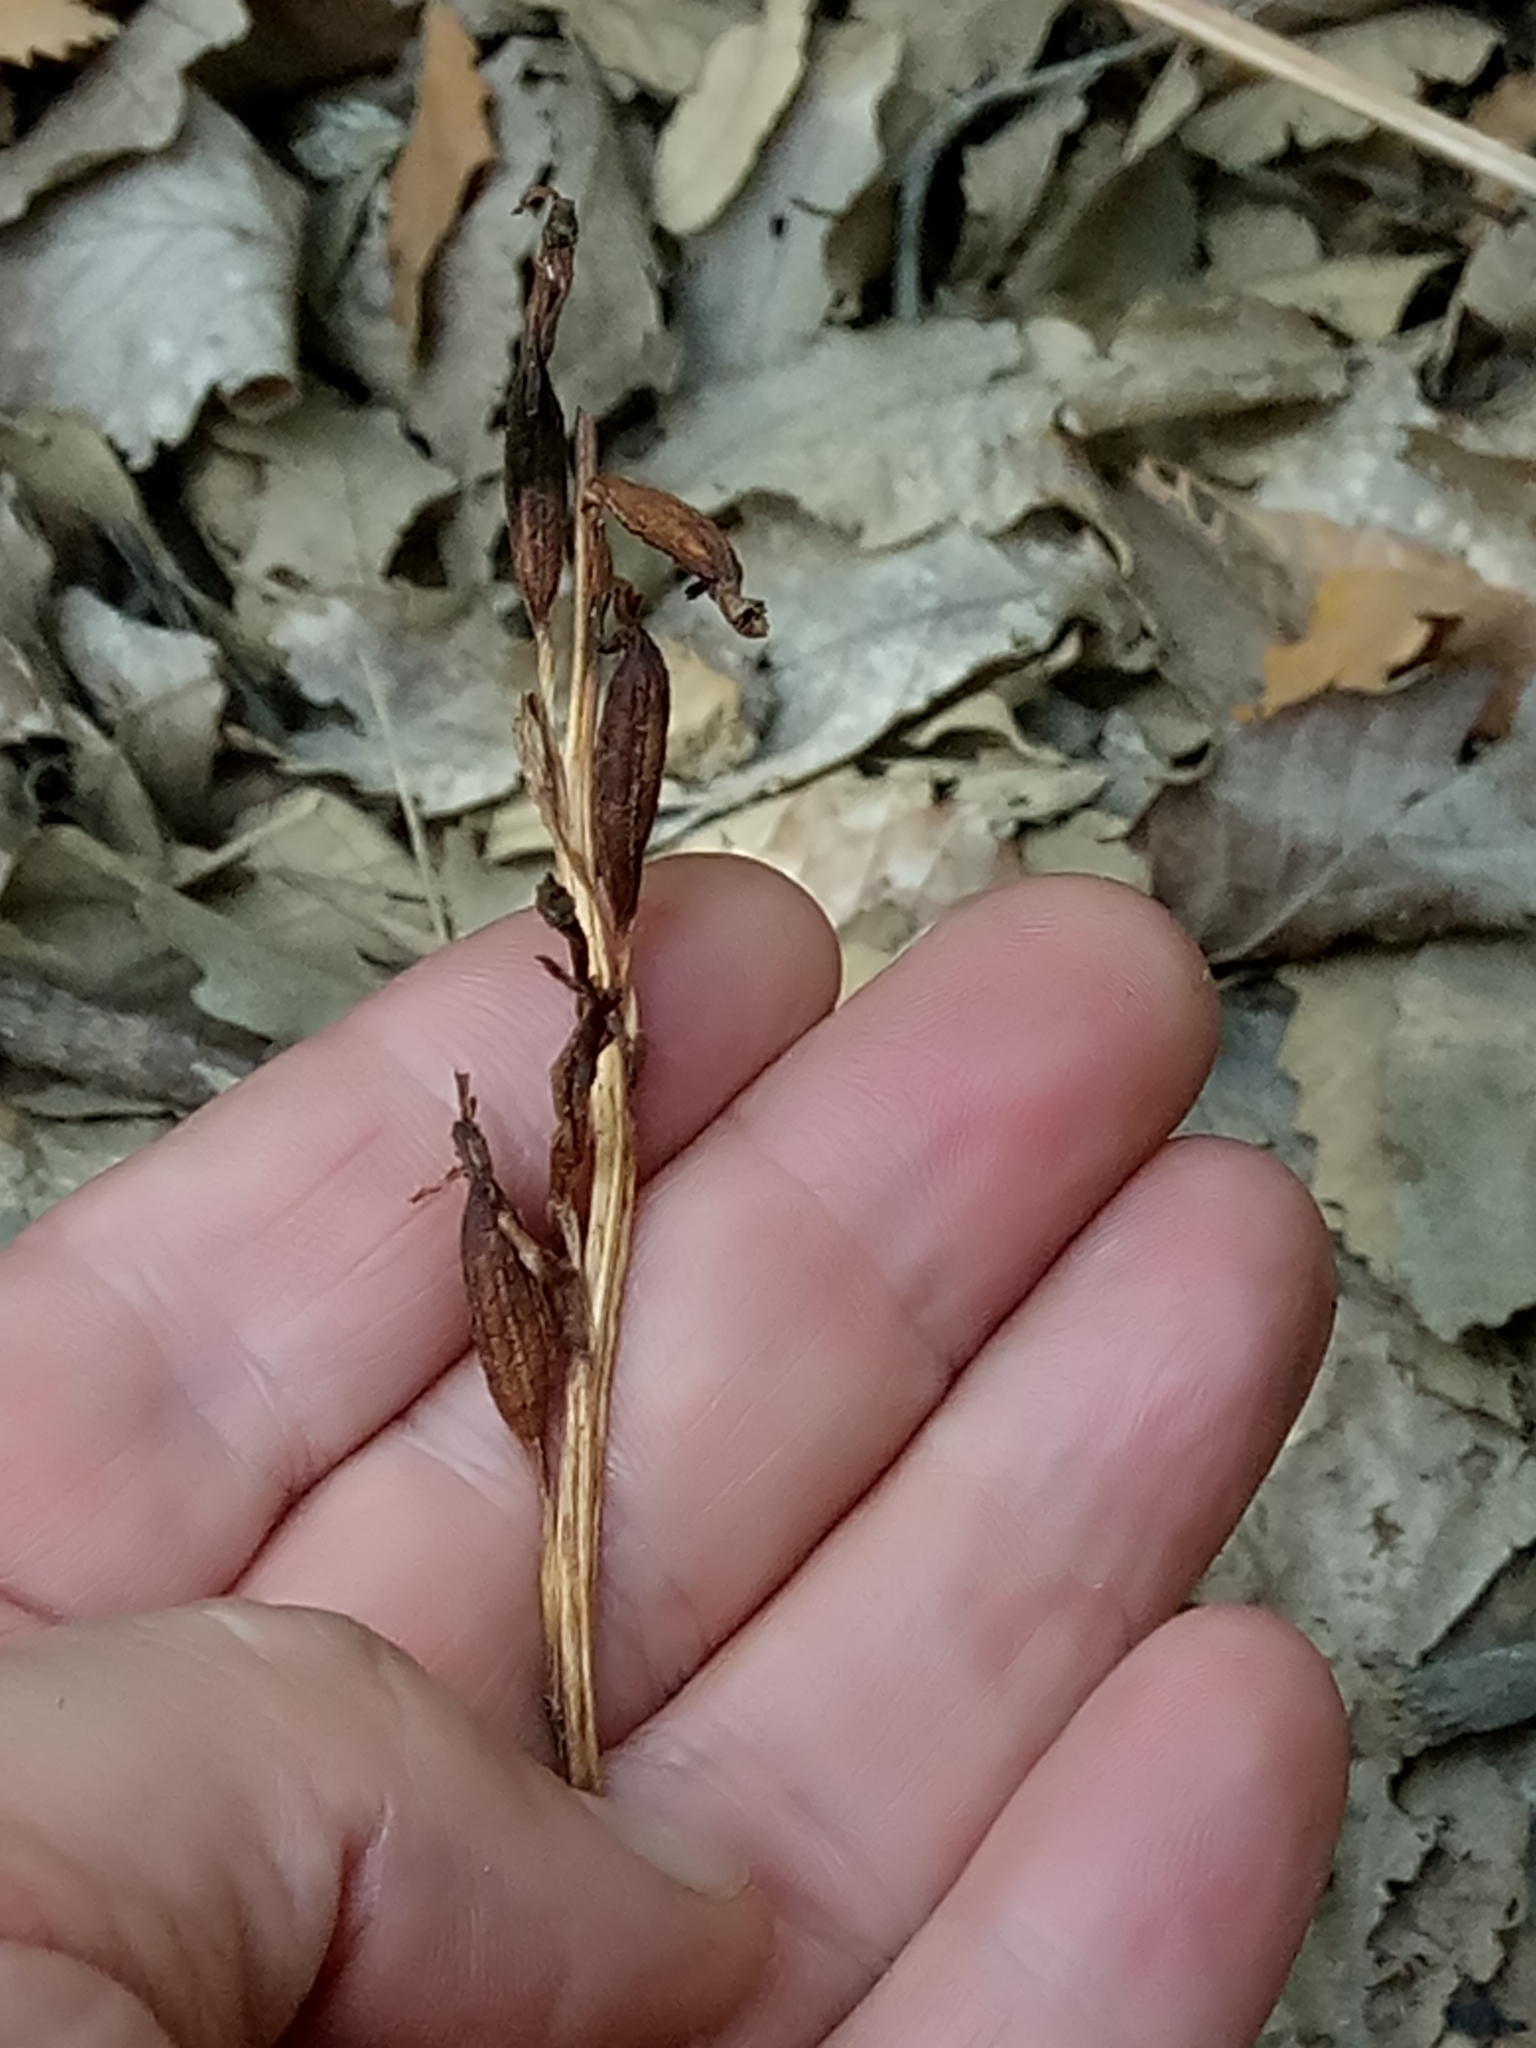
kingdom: Plantae
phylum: Tracheophyta
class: Liliopsida
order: Asparagales
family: Orchidaceae
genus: Ophrys
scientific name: Ophrys apifera
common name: Bee orchid
